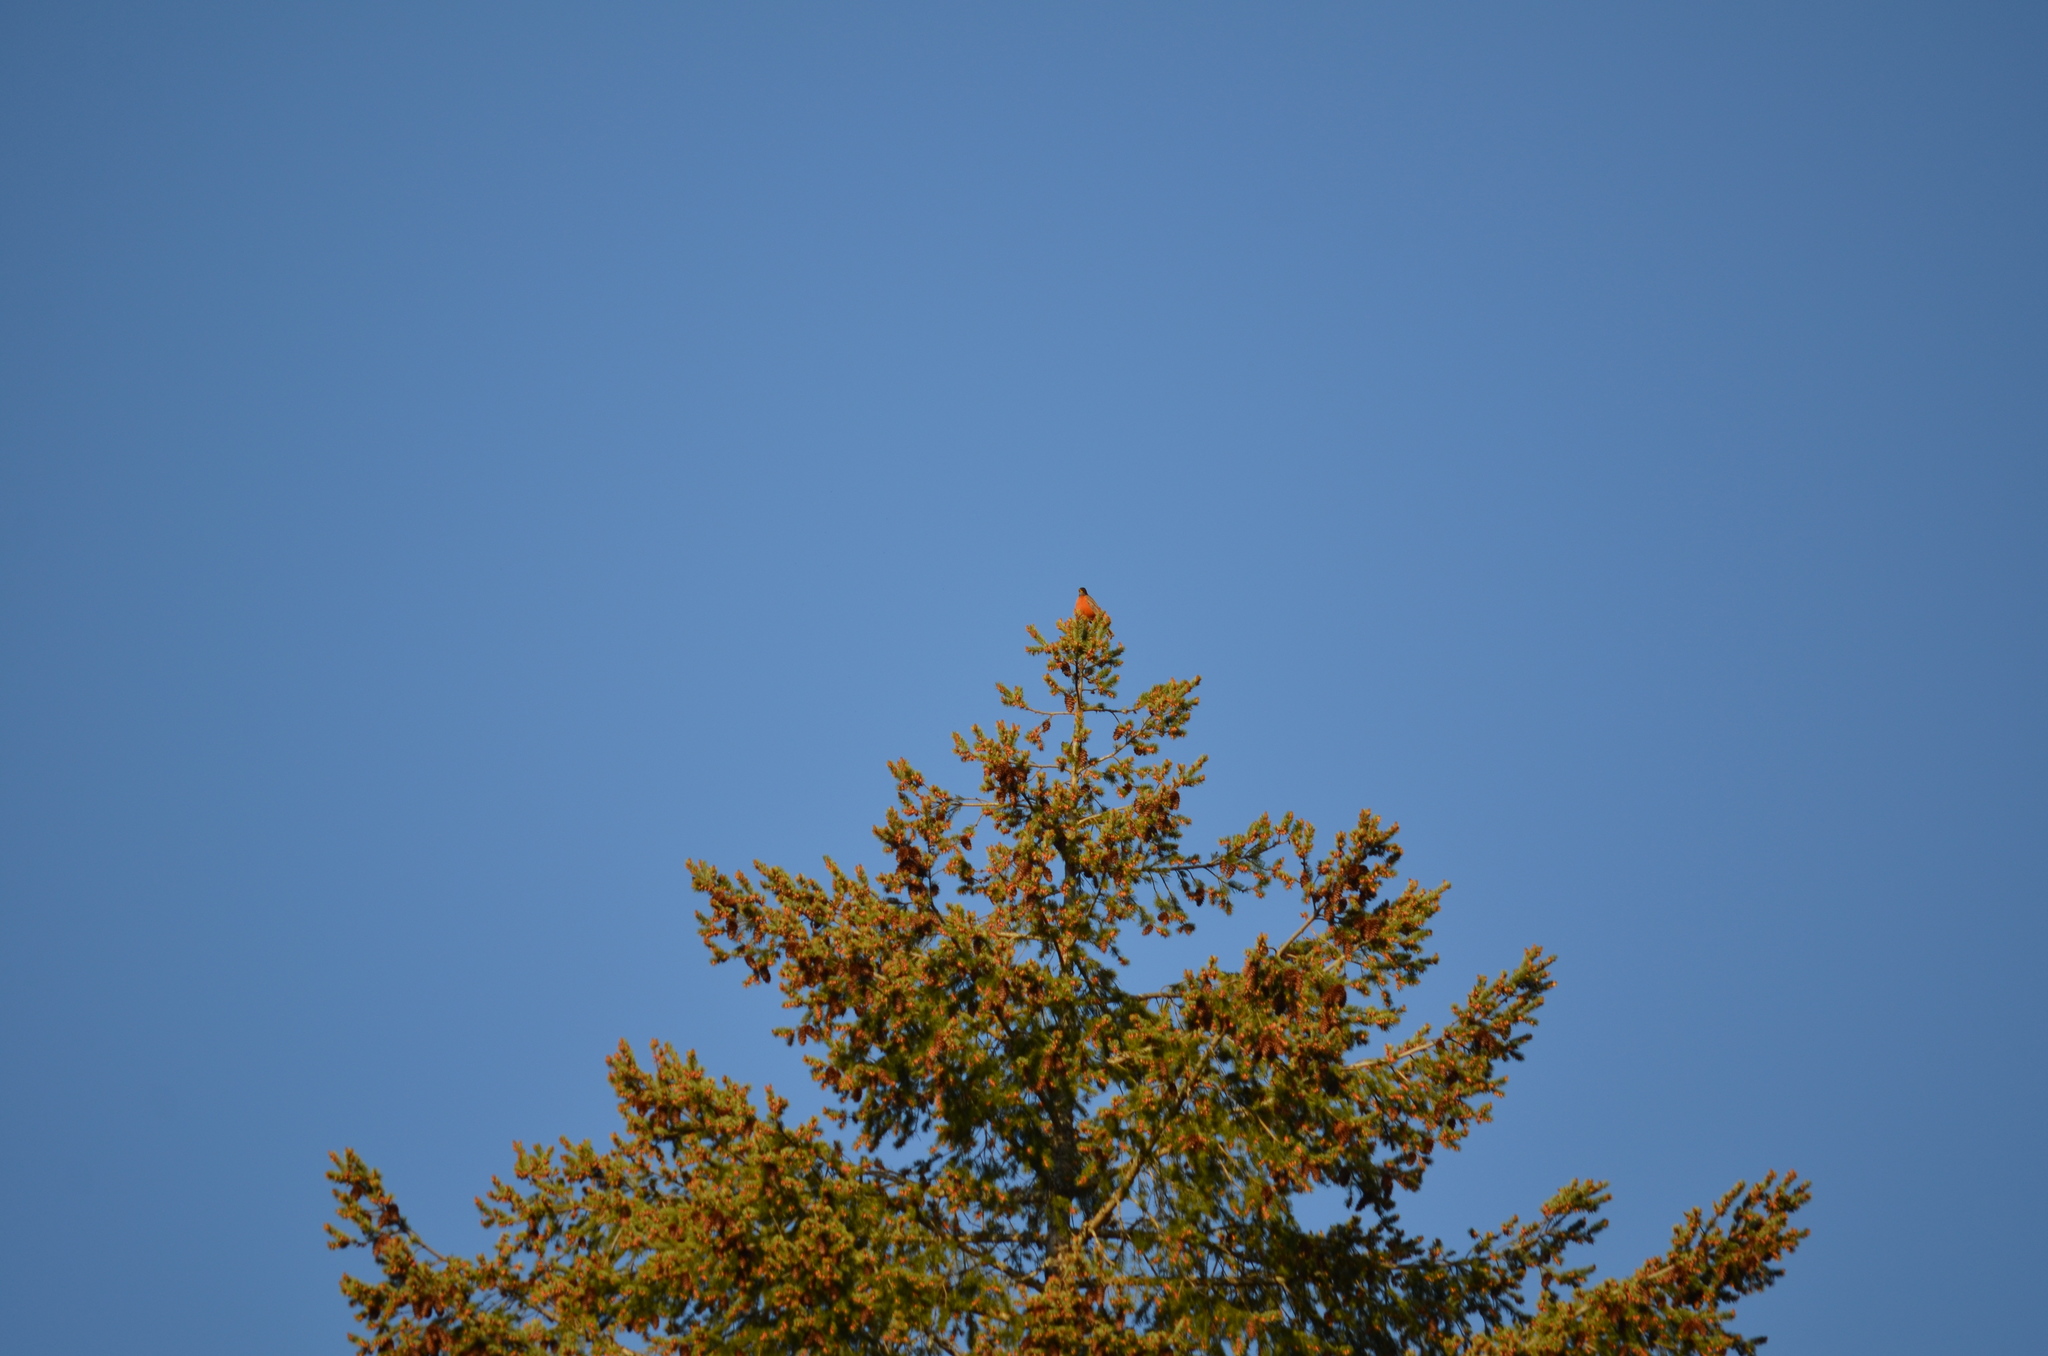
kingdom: Animalia
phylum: Chordata
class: Aves
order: Passeriformes
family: Turdidae
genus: Turdus
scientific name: Turdus migratorius
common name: American robin
